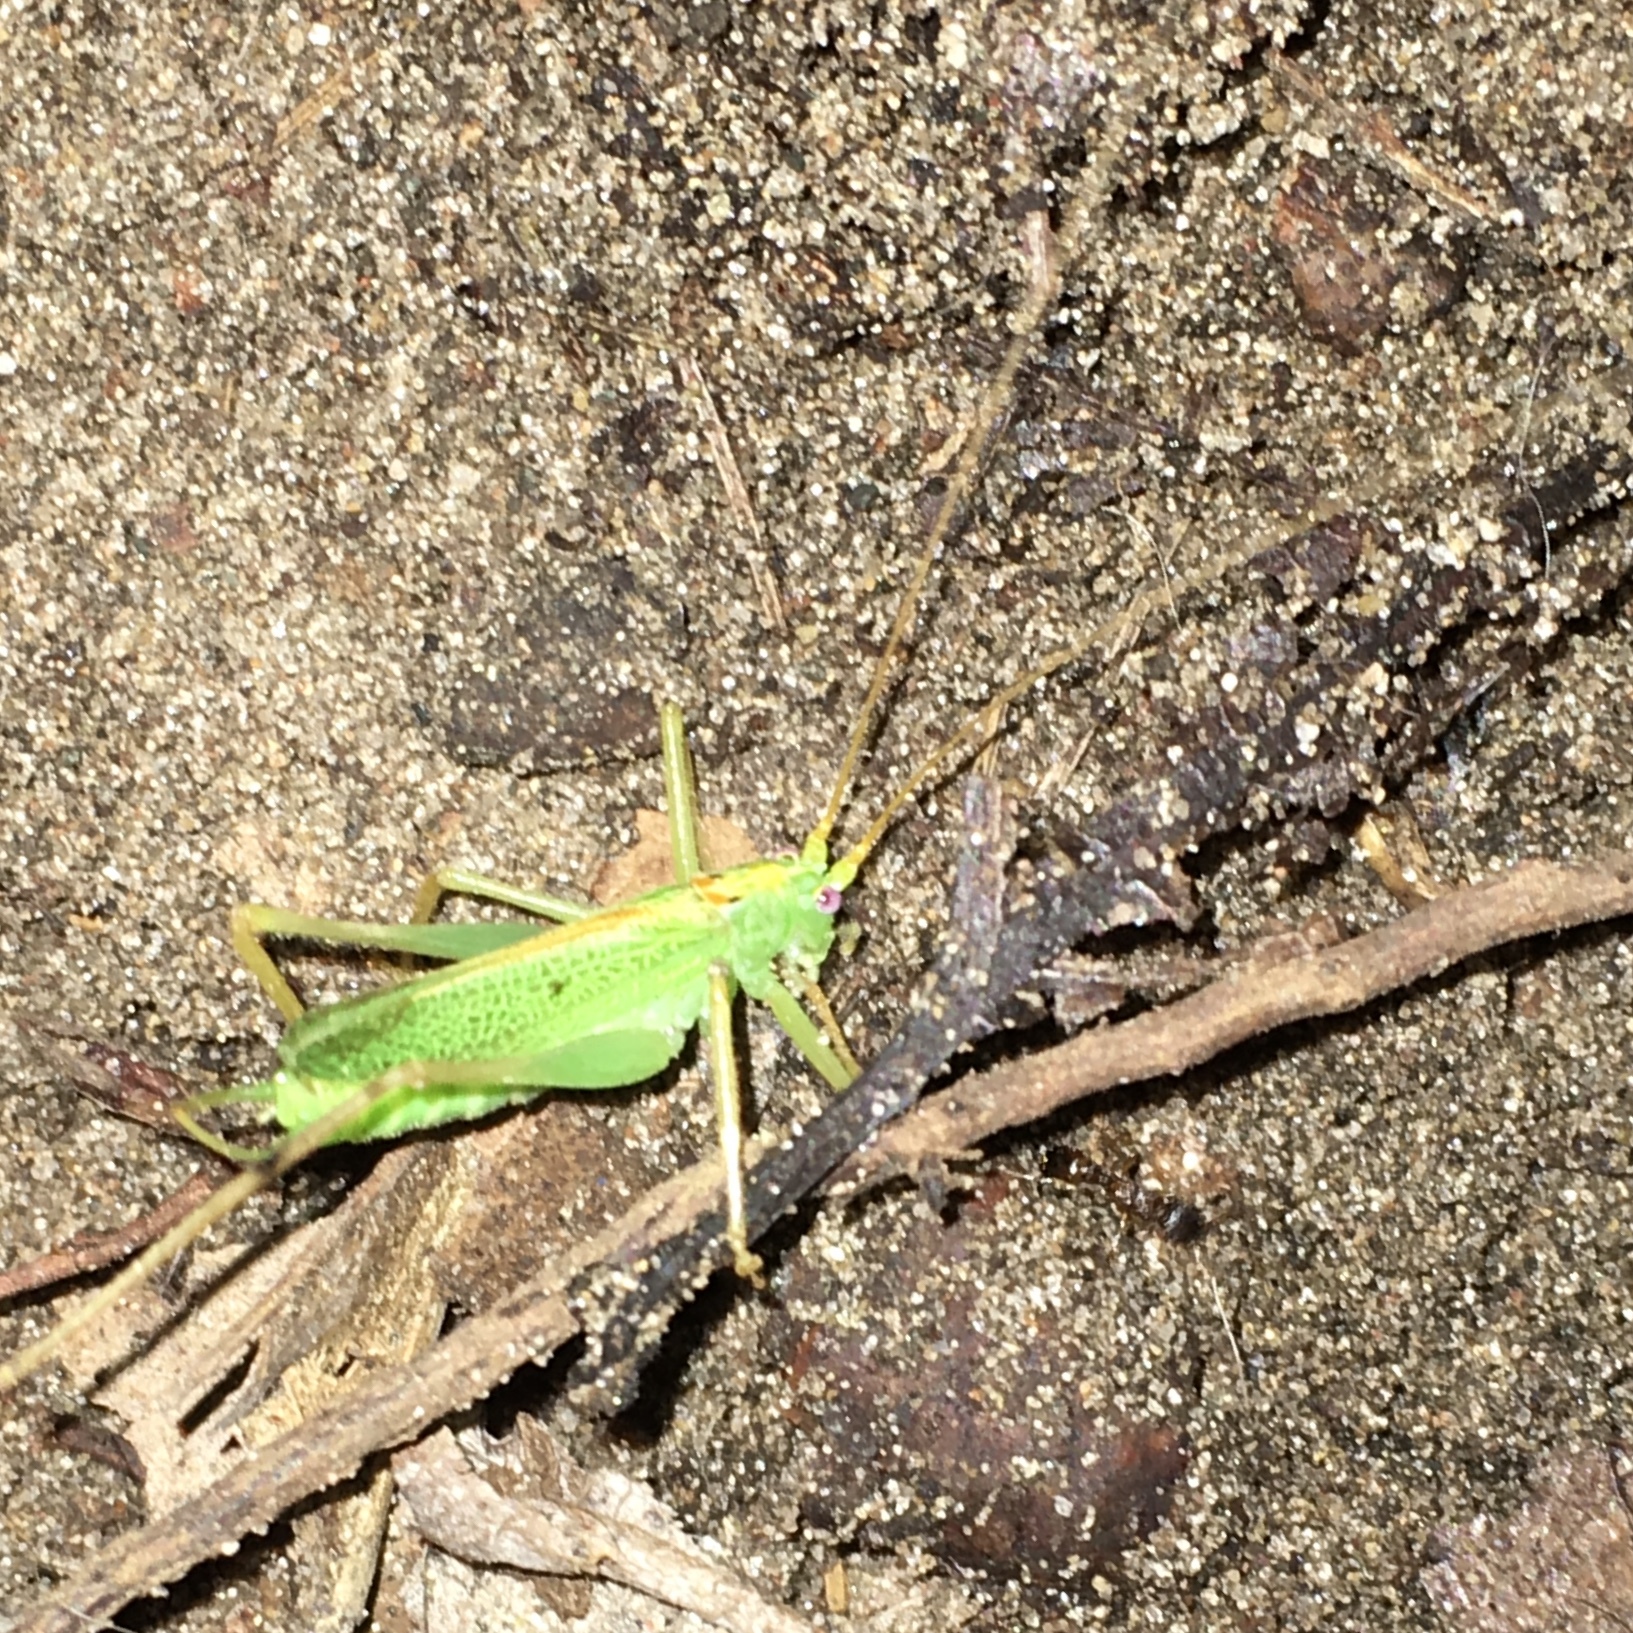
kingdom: Animalia
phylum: Arthropoda
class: Insecta
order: Orthoptera
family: Tettigoniidae
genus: Meconema
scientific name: Meconema thalassinum
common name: Oak bush-cricket
